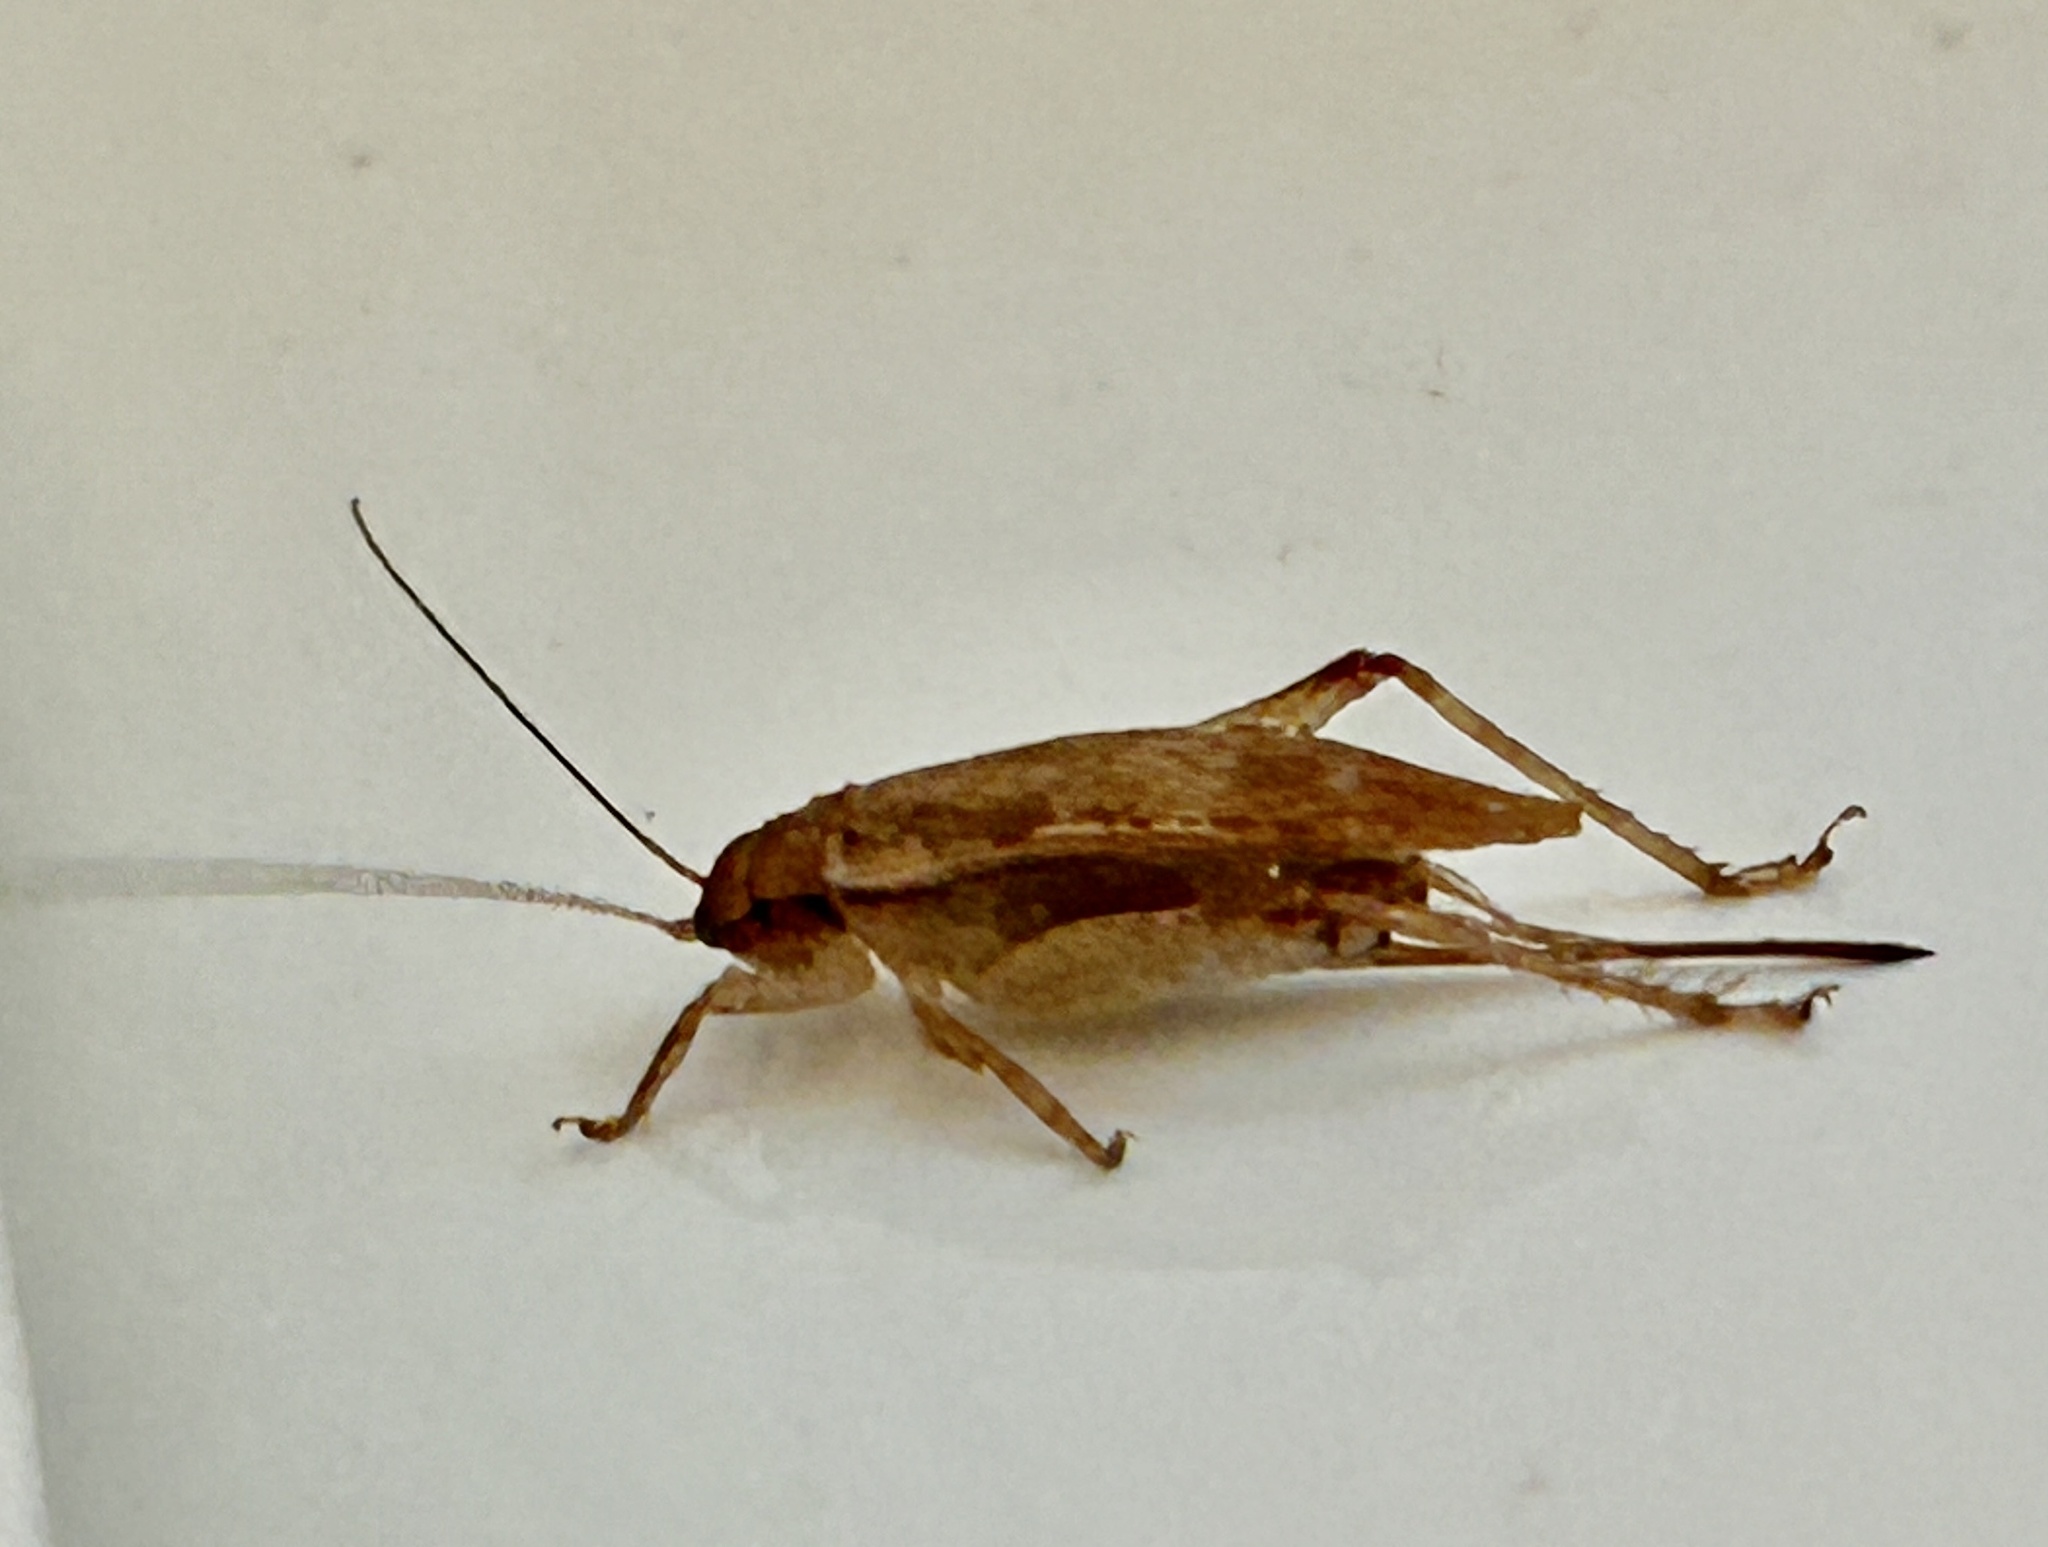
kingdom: Animalia
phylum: Arthropoda
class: Insecta
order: Orthoptera
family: Gryllidae
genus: Hapithus
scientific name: Hapithus saltator
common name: Jumping bush cricket
